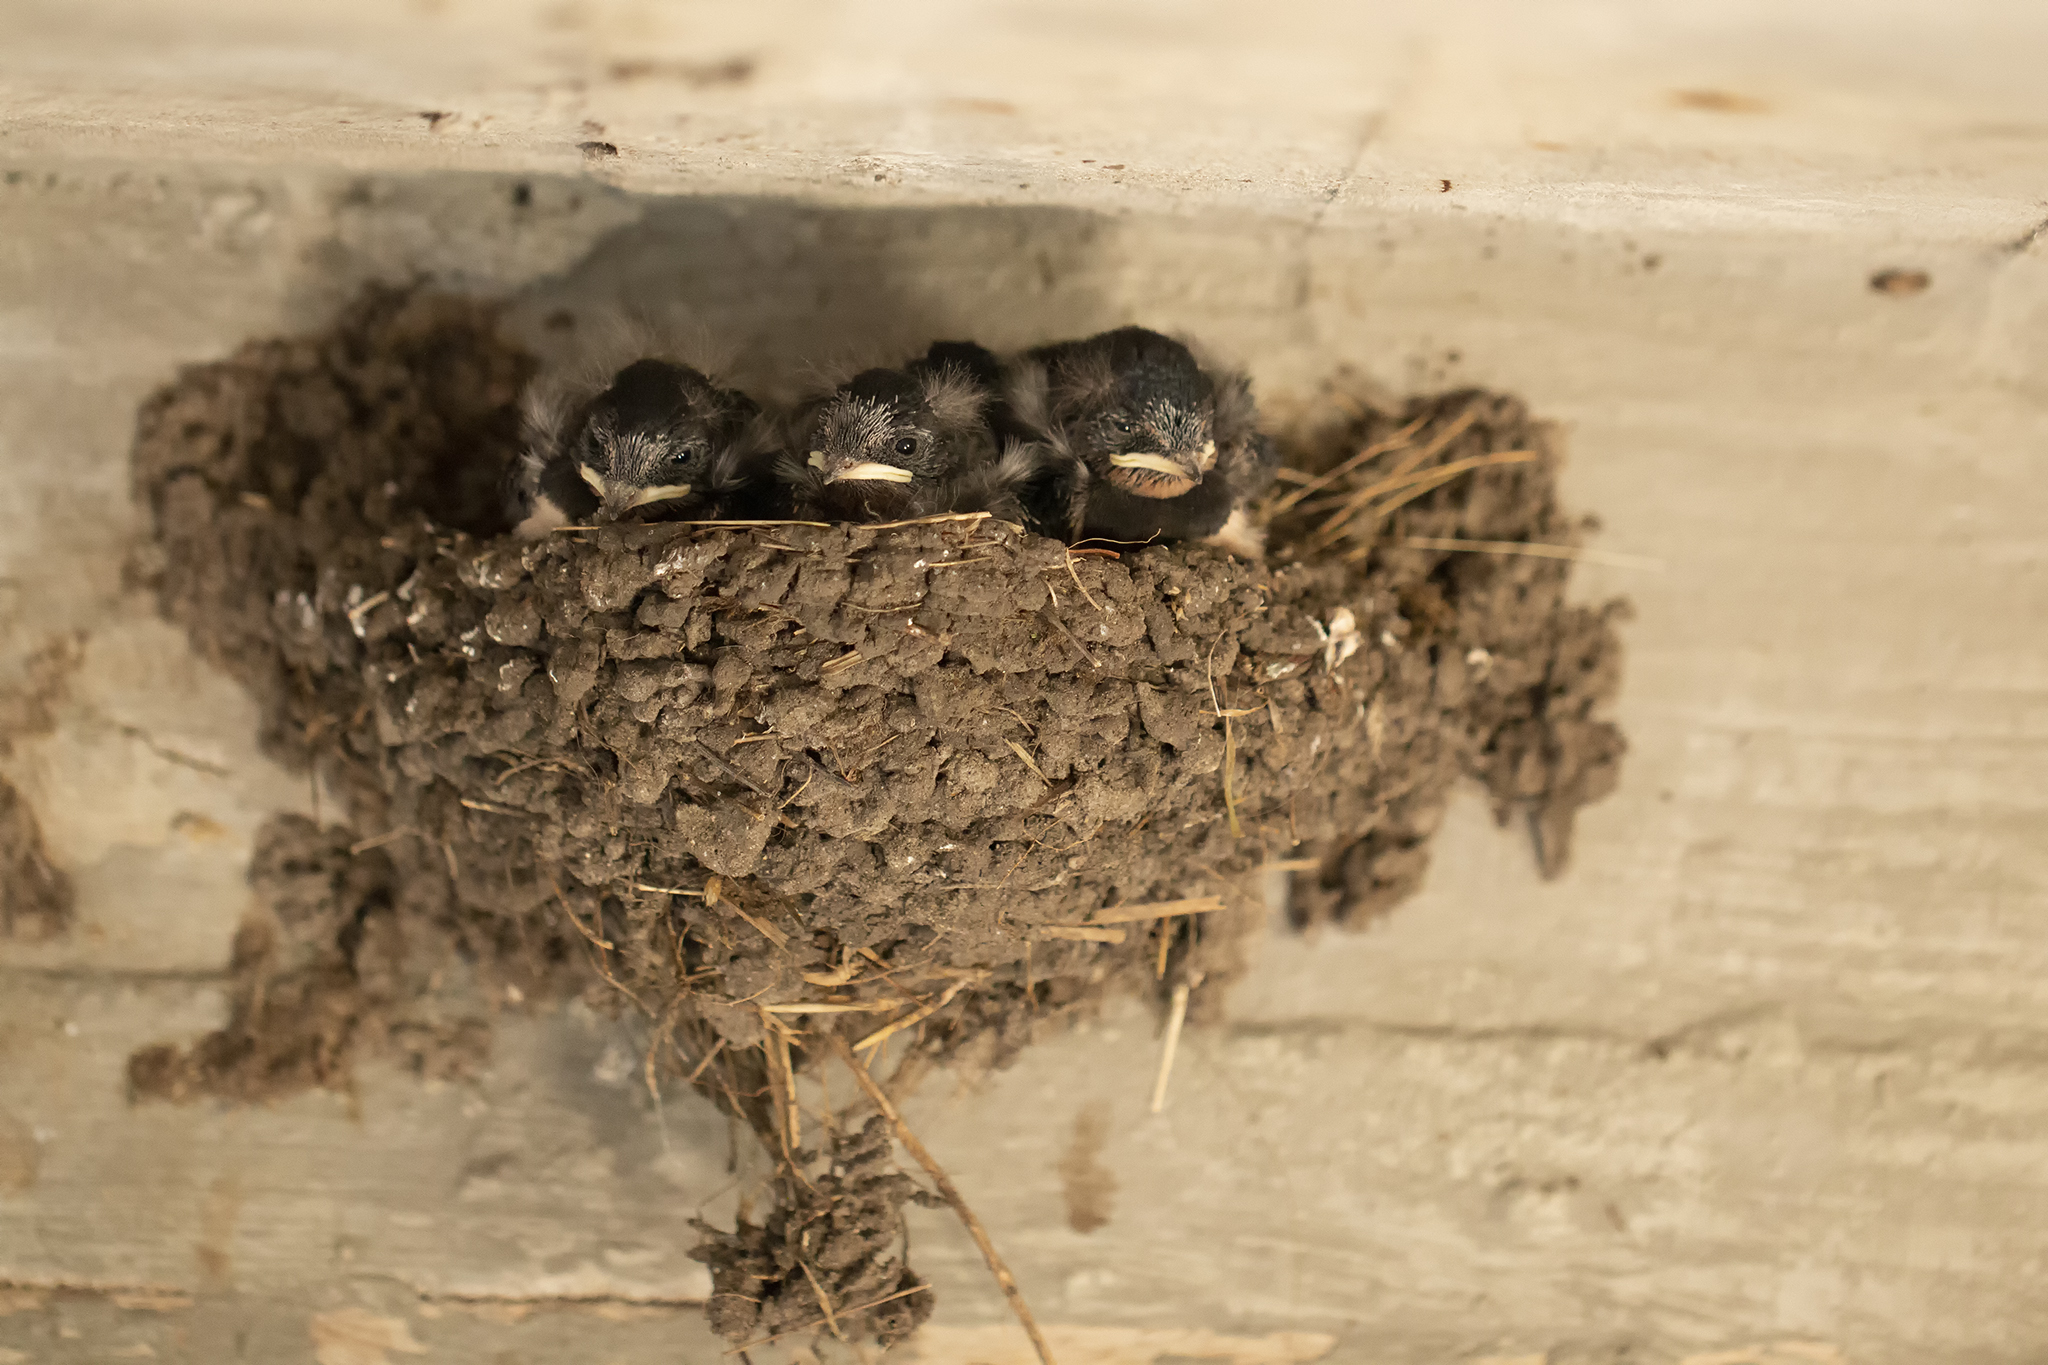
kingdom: Animalia
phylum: Chordata
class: Aves
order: Passeriformes
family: Hirundinidae
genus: Hirundo
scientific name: Hirundo rustica
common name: Barn swallow
